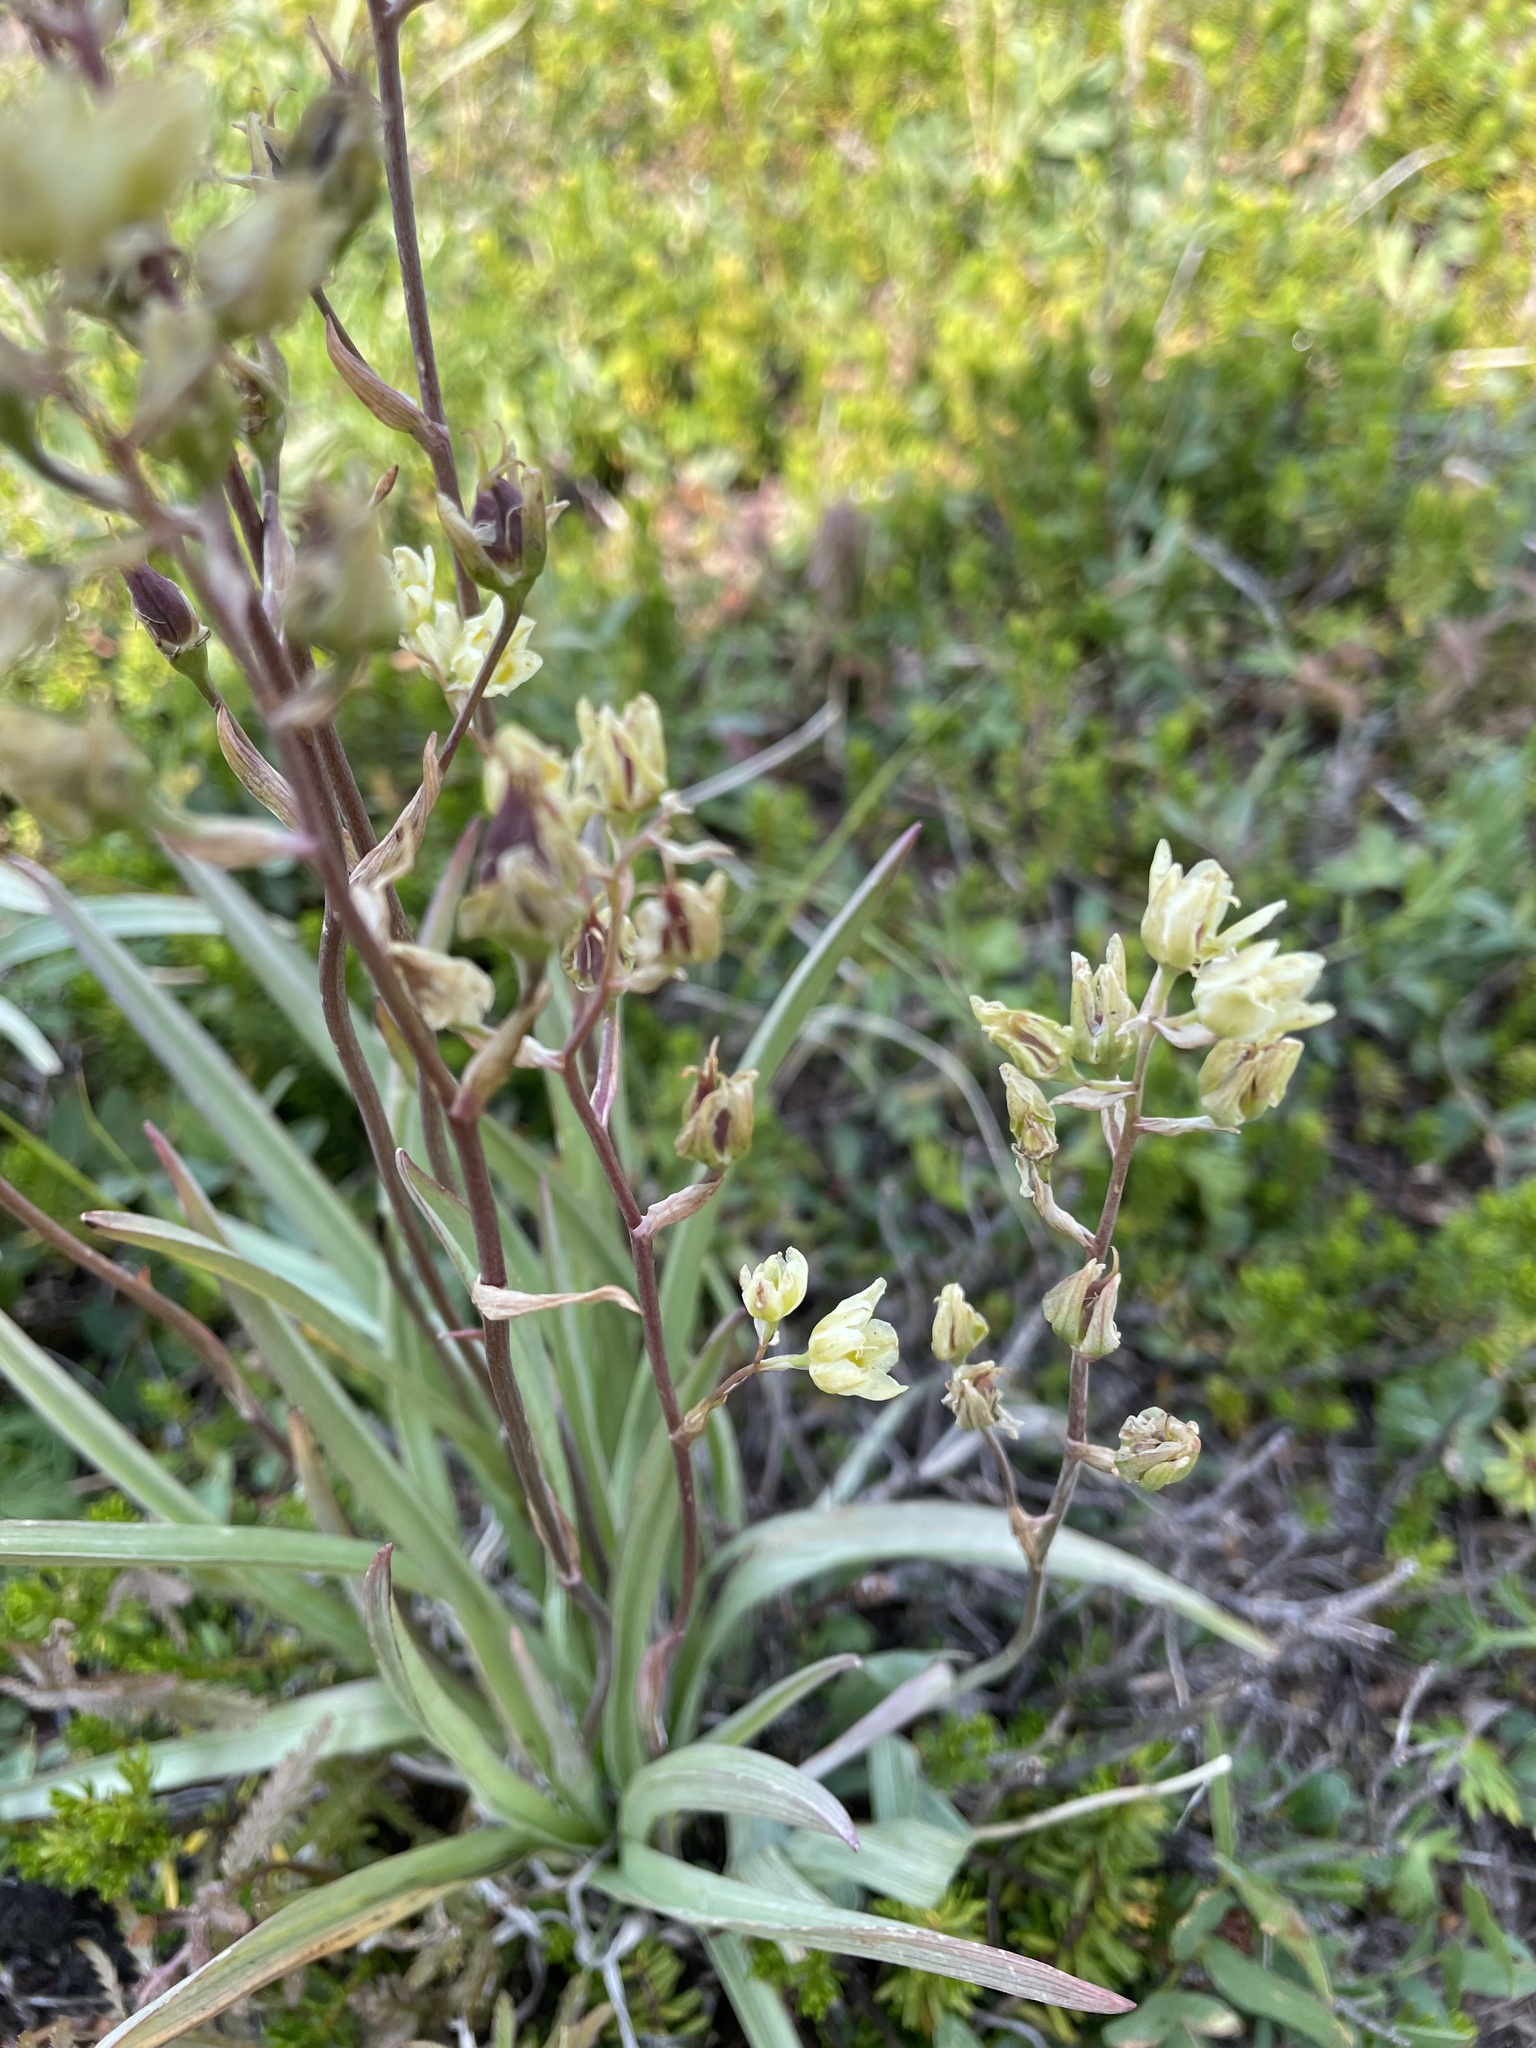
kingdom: Plantae
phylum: Tracheophyta
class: Liliopsida
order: Liliales
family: Melanthiaceae
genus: Anticlea
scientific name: Anticlea elegans
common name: Mountain death camas
